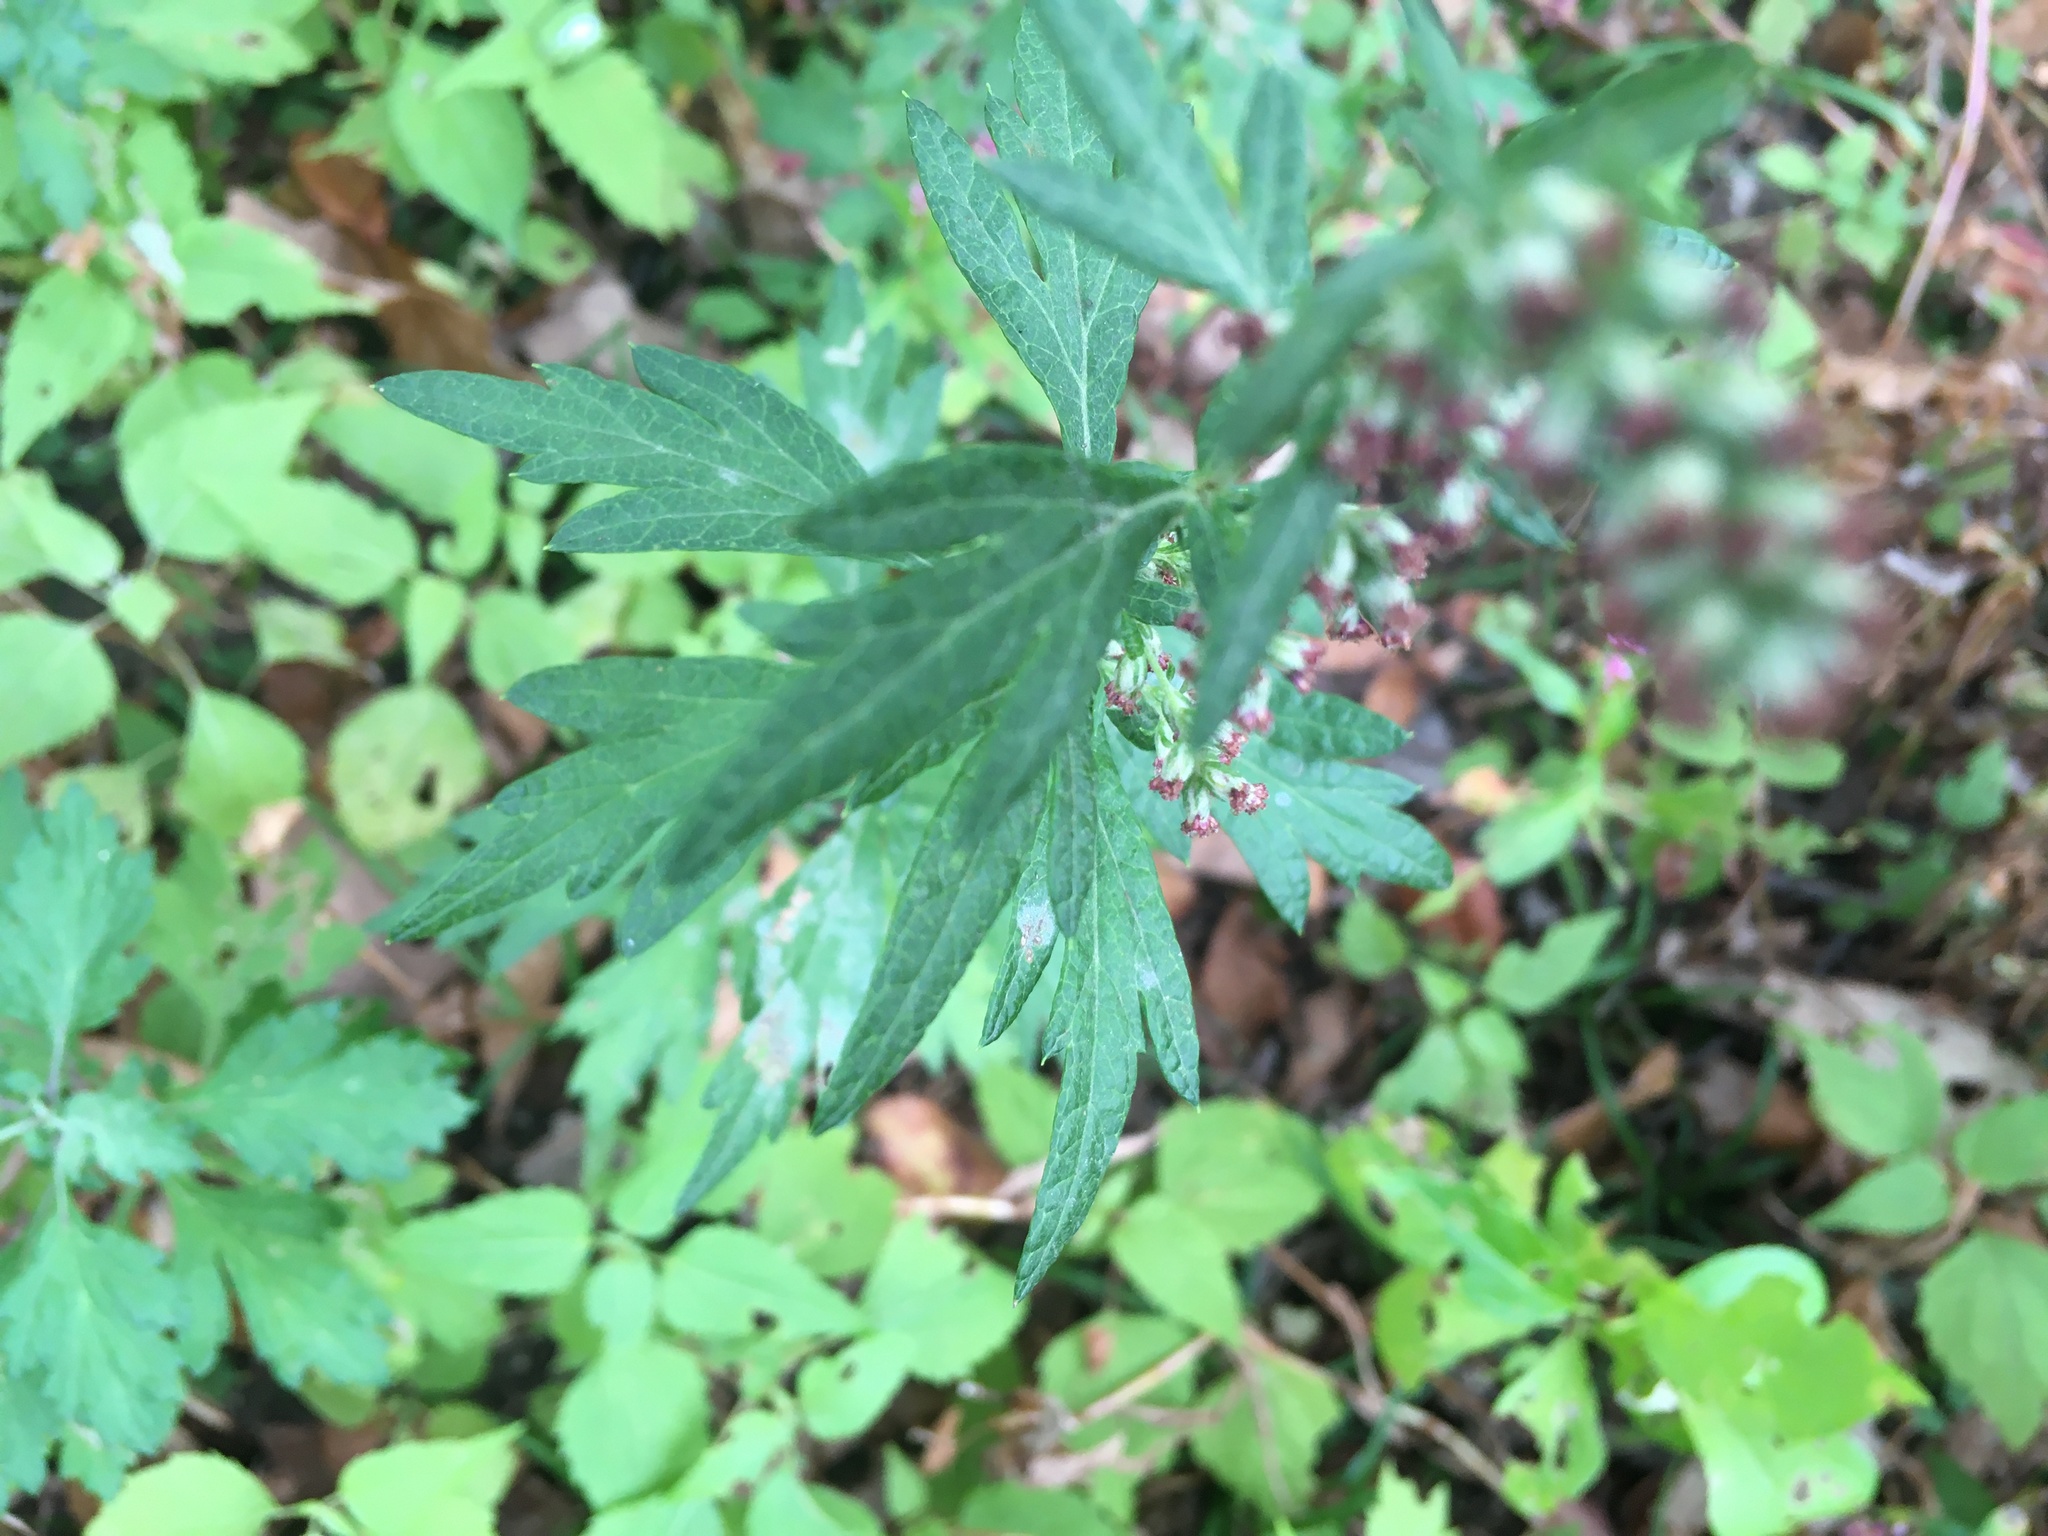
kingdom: Plantae
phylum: Tracheophyta
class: Magnoliopsida
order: Asterales
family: Asteraceae
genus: Artemisia
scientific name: Artemisia vulgaris
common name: Mugwort
